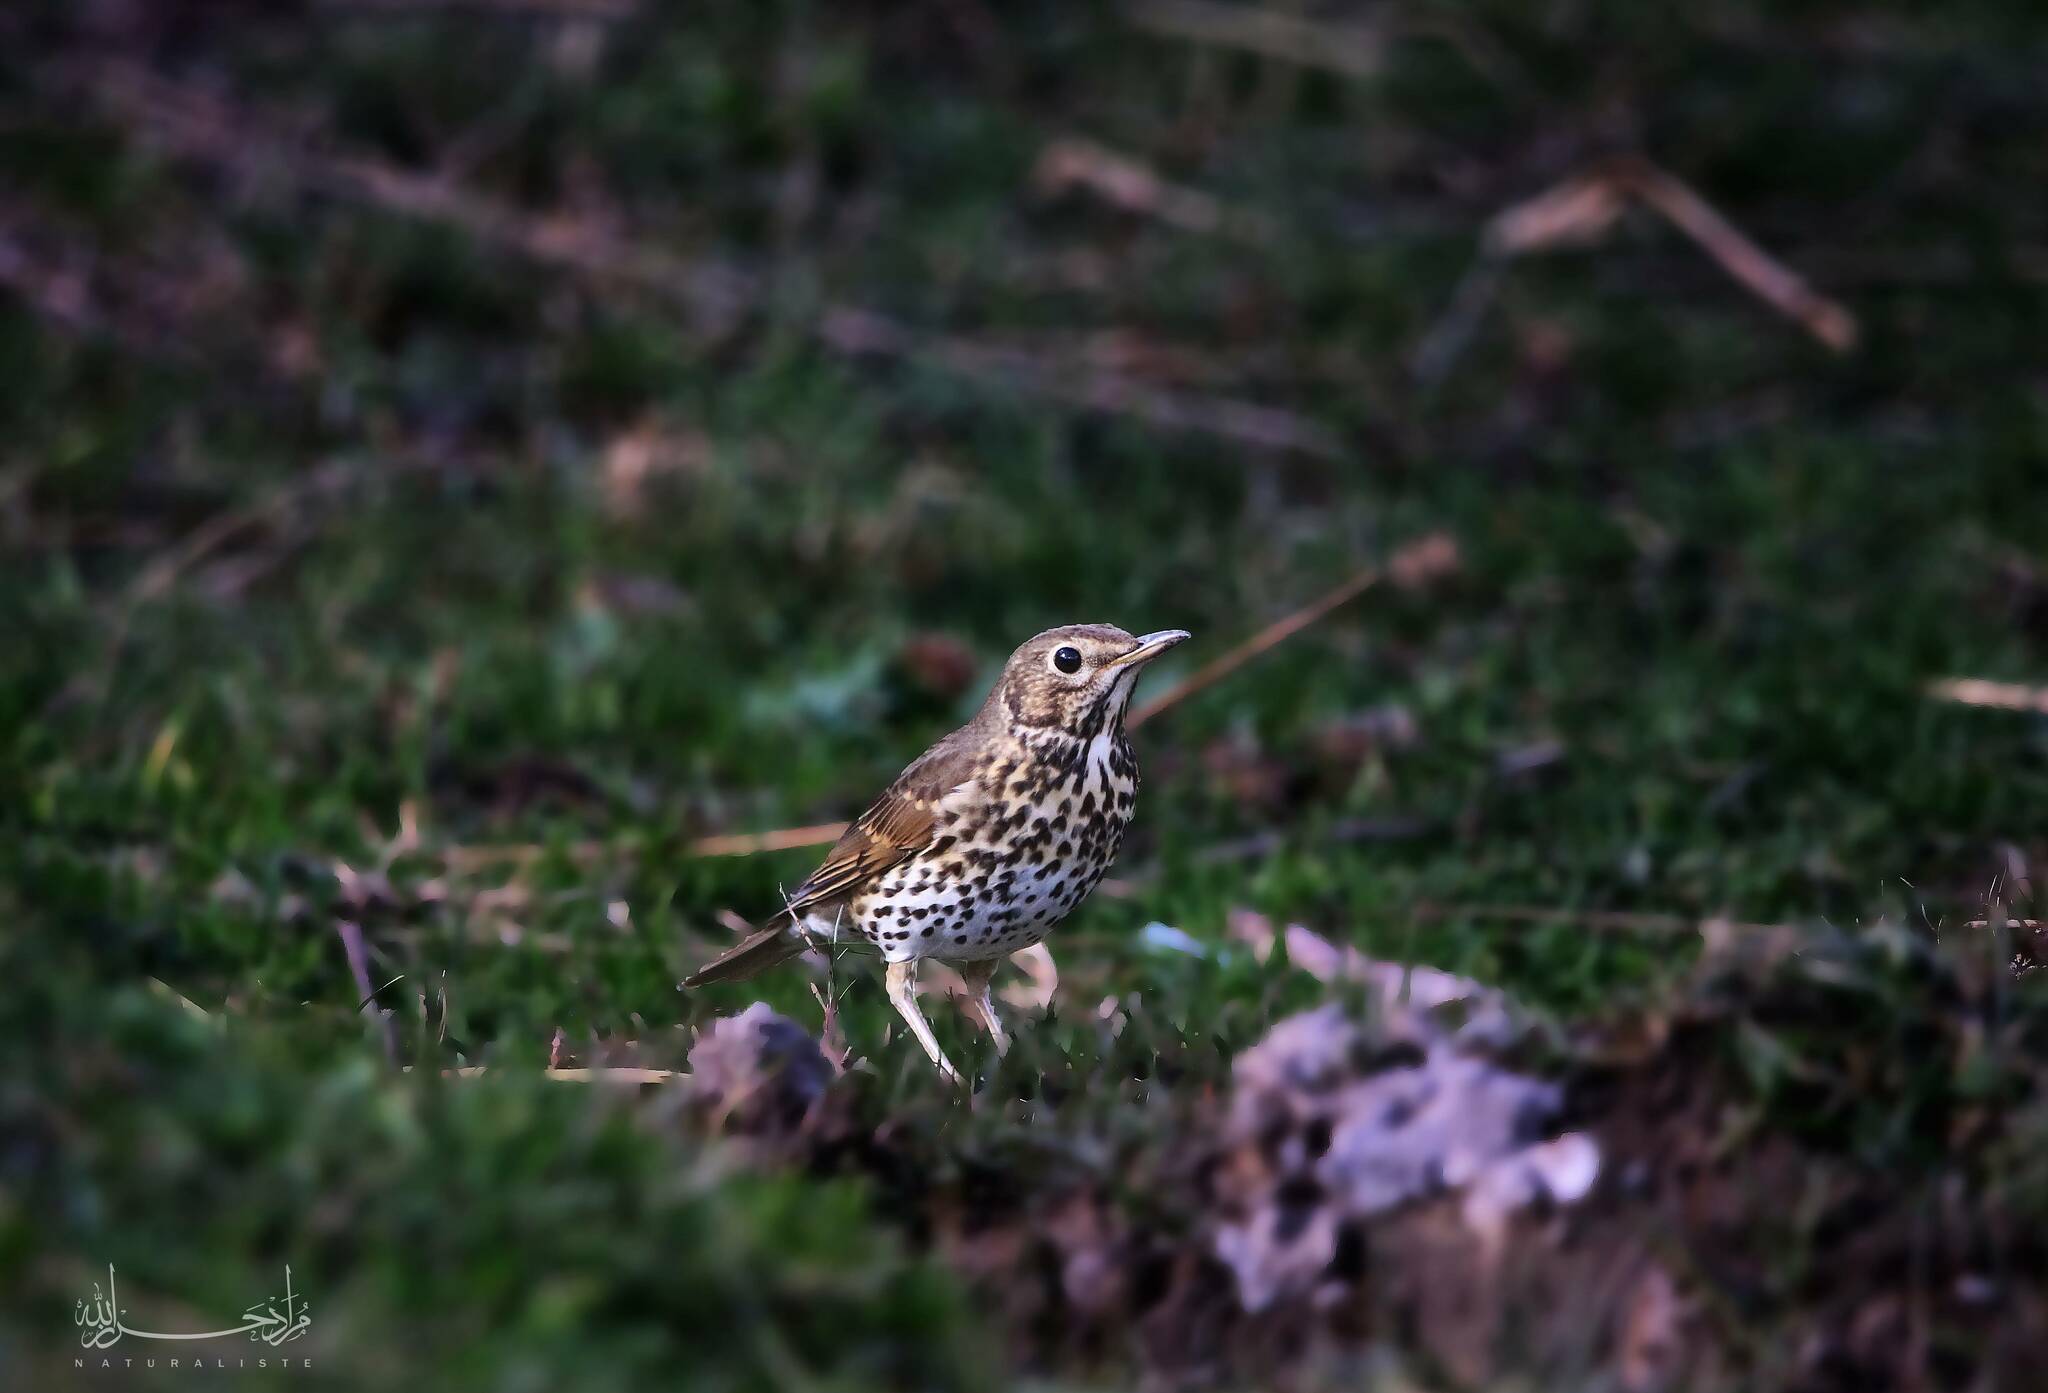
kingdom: Animalia
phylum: Chordata
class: Aves
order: Passeriformes
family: Turdidae
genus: Turdus
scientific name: Turdus philomelos
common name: Song thrush
